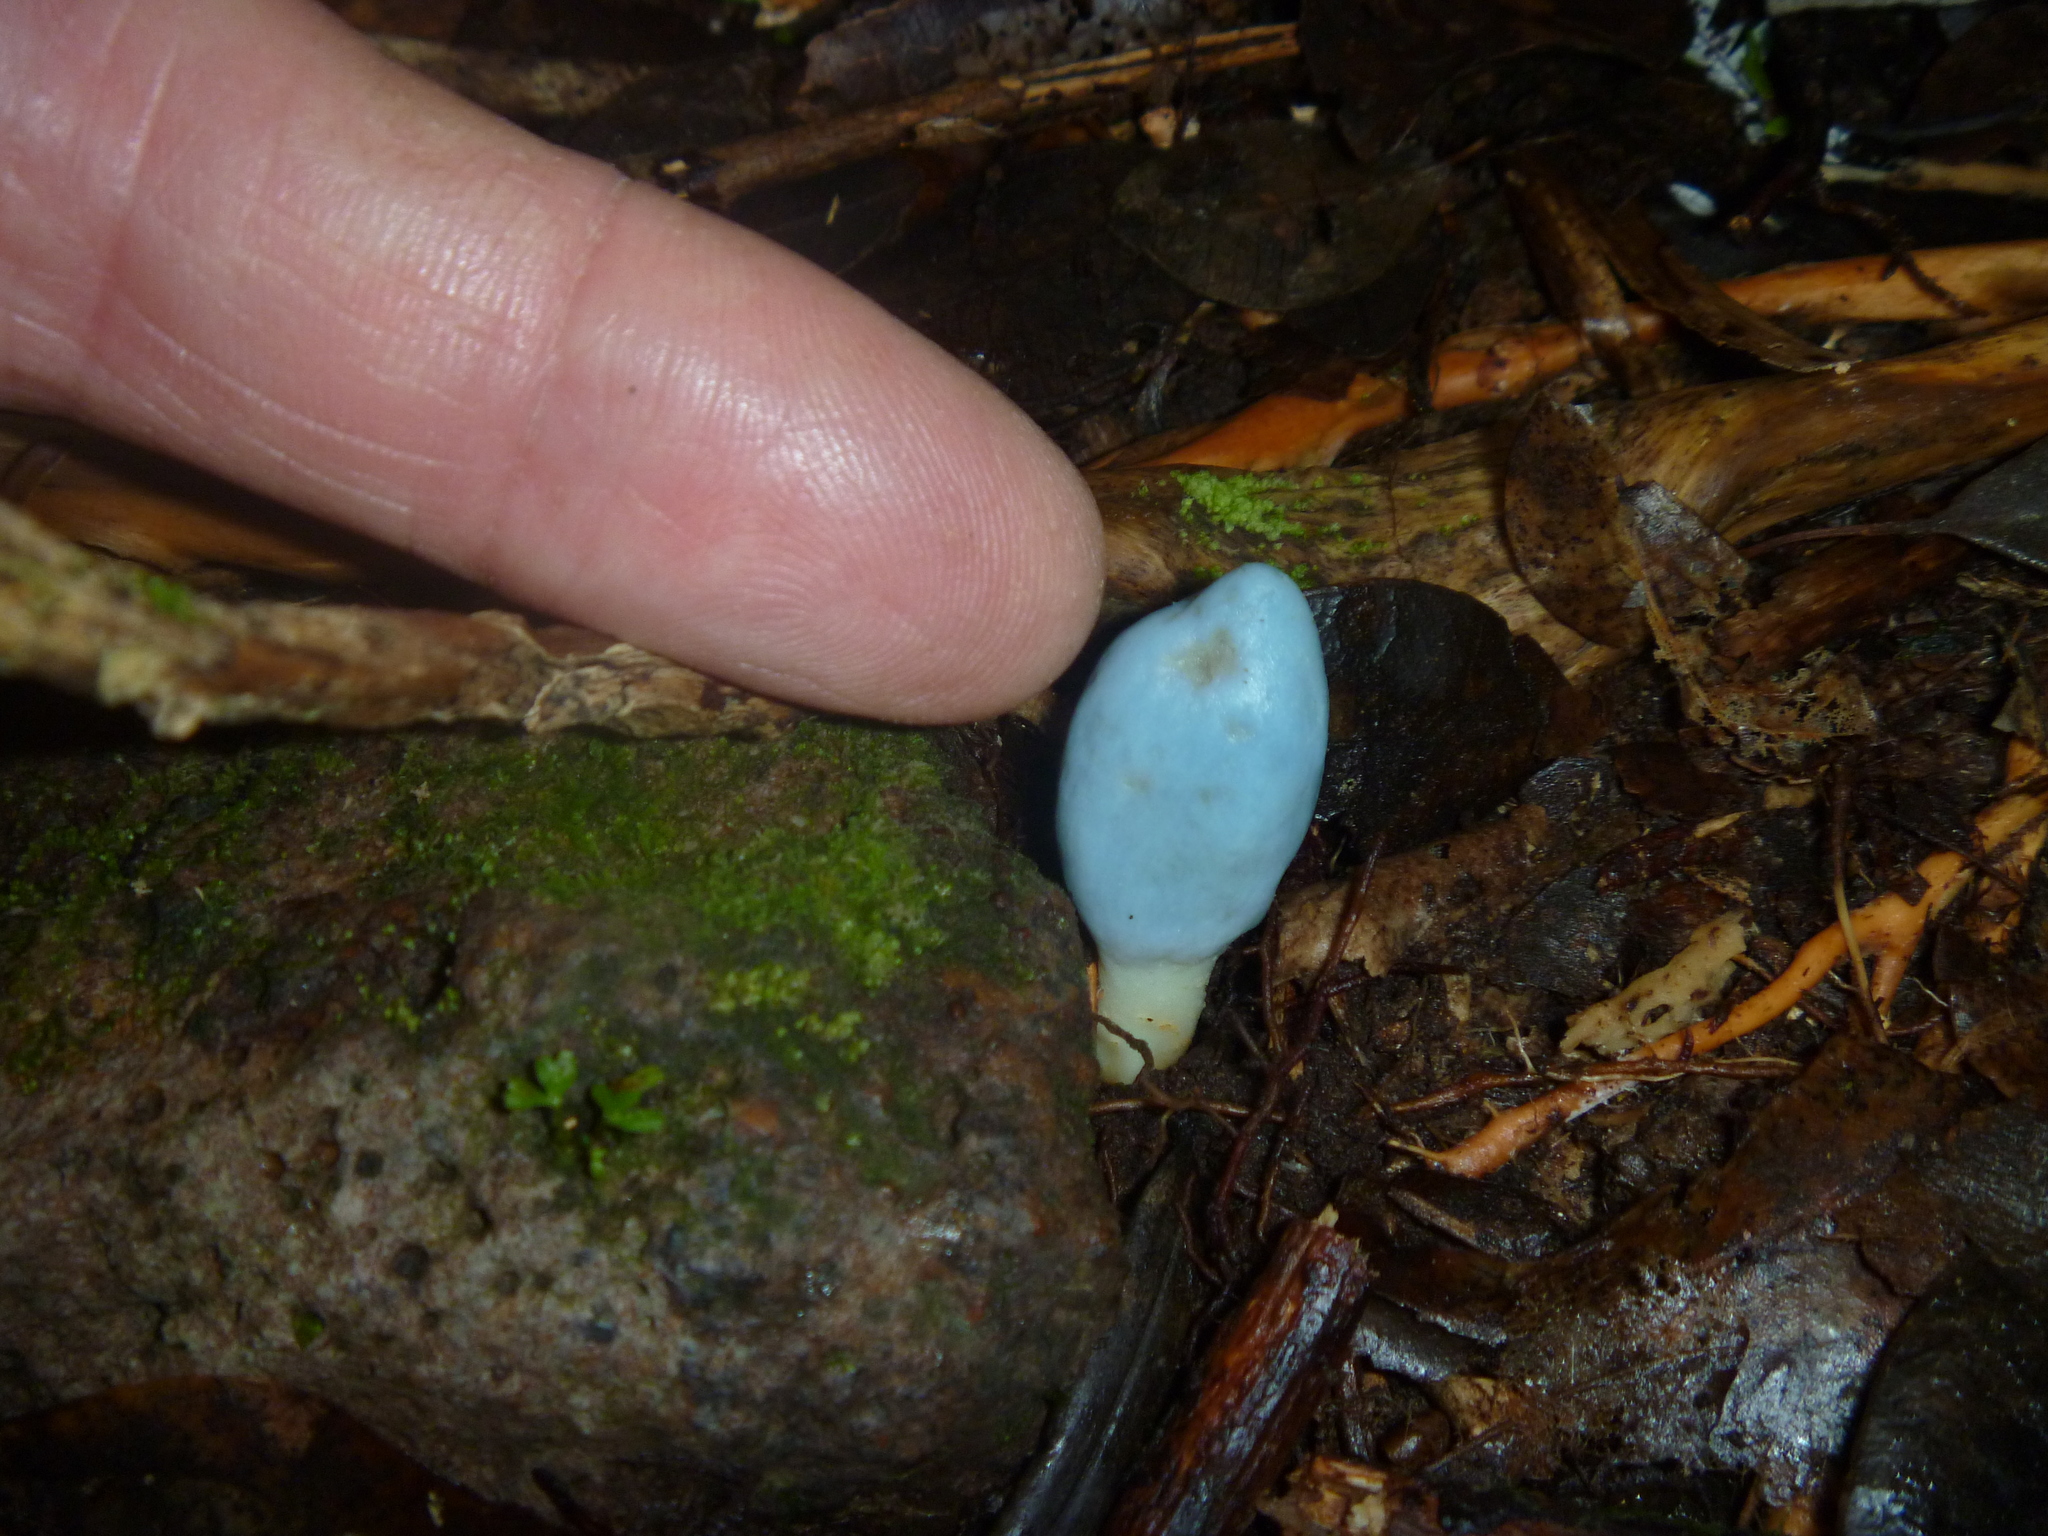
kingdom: Fungi
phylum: Basidiomycota
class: Agaricomycetes
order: Agaricales
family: Agaricaceae
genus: Clavogaster
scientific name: Clavogaster virescens
